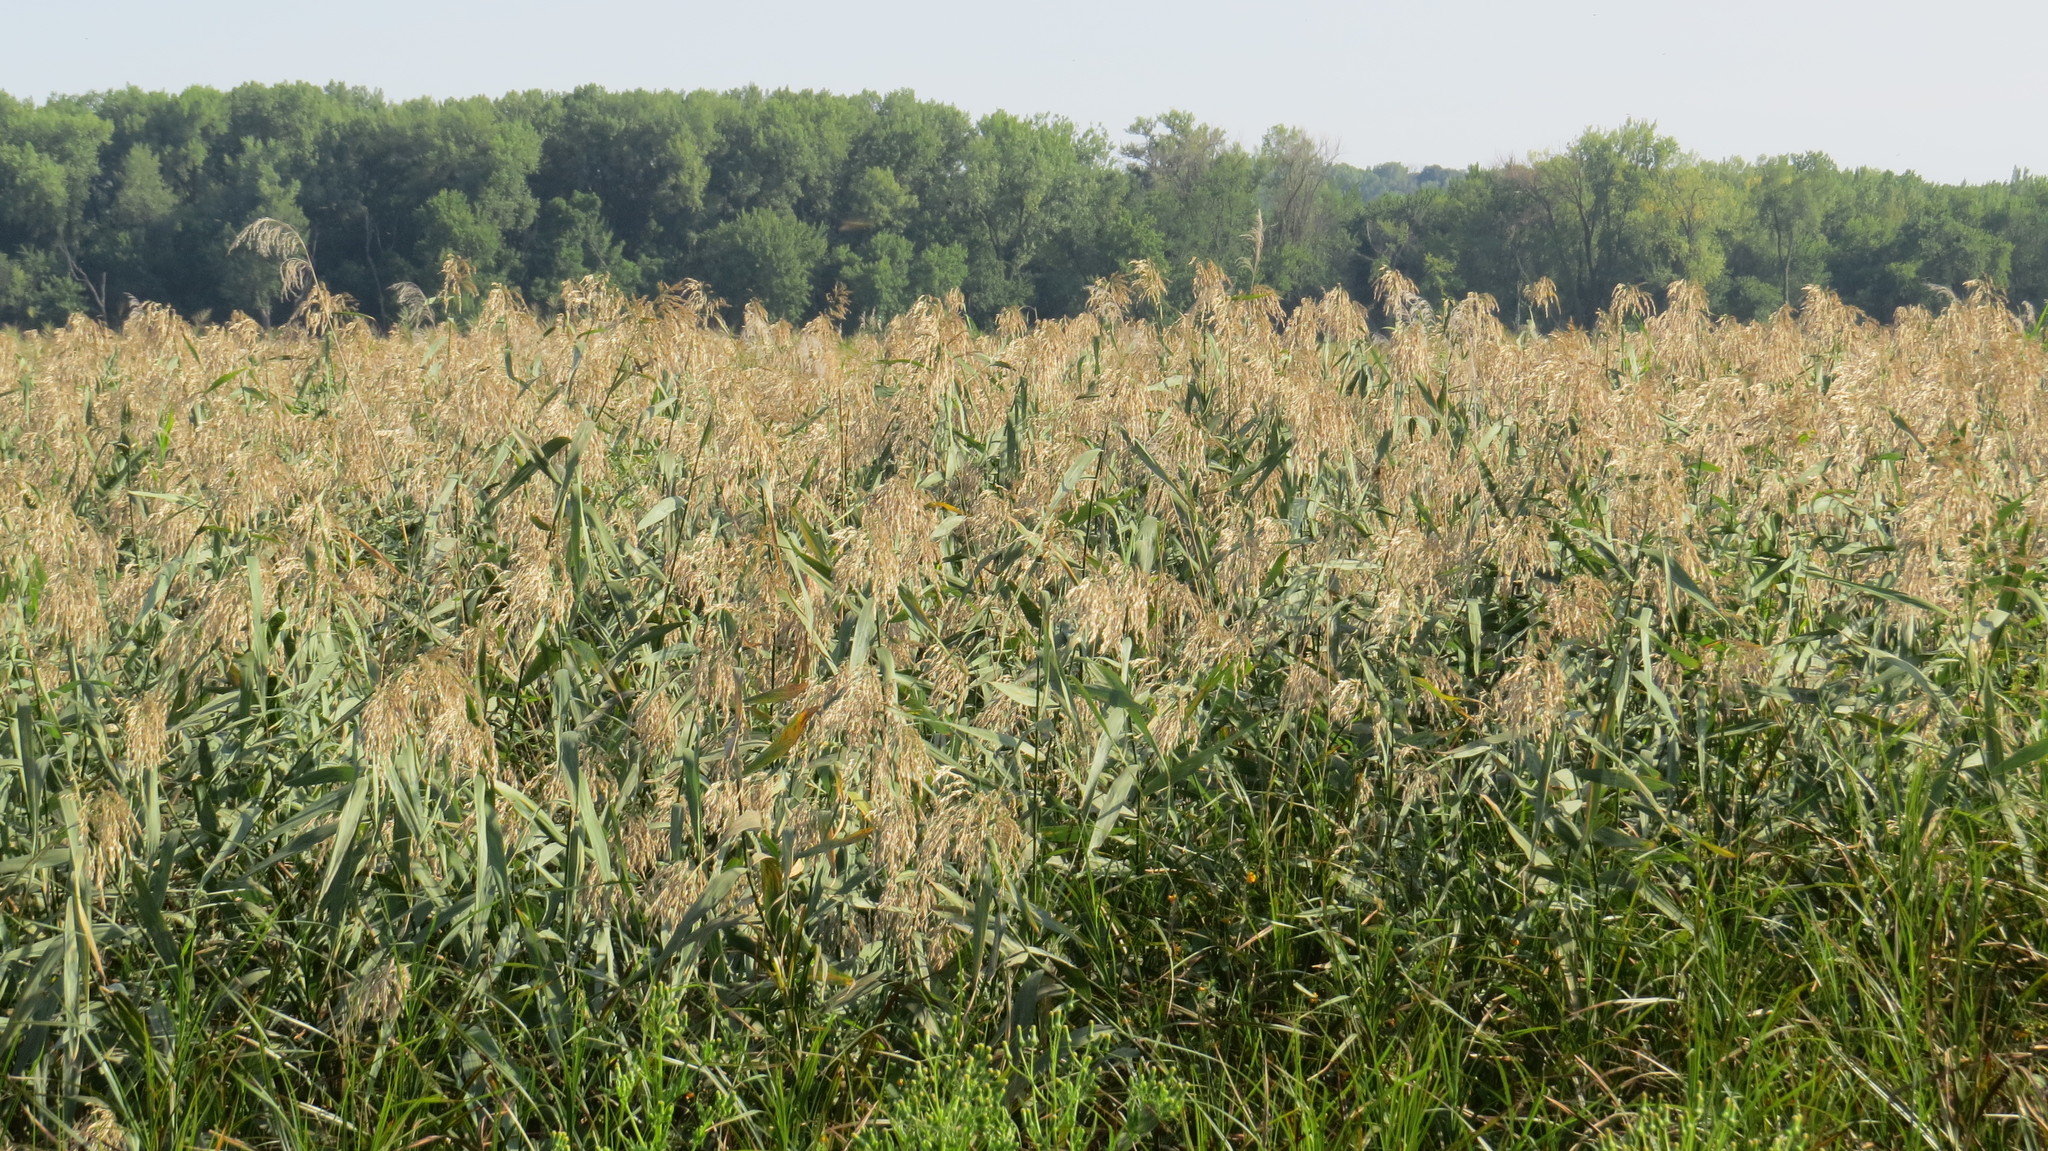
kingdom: Plantae
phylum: Tracheophyta
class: Liliopsida
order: Poales
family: Poaceae
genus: Phragmites
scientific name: Phragmites australis
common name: Common reed
